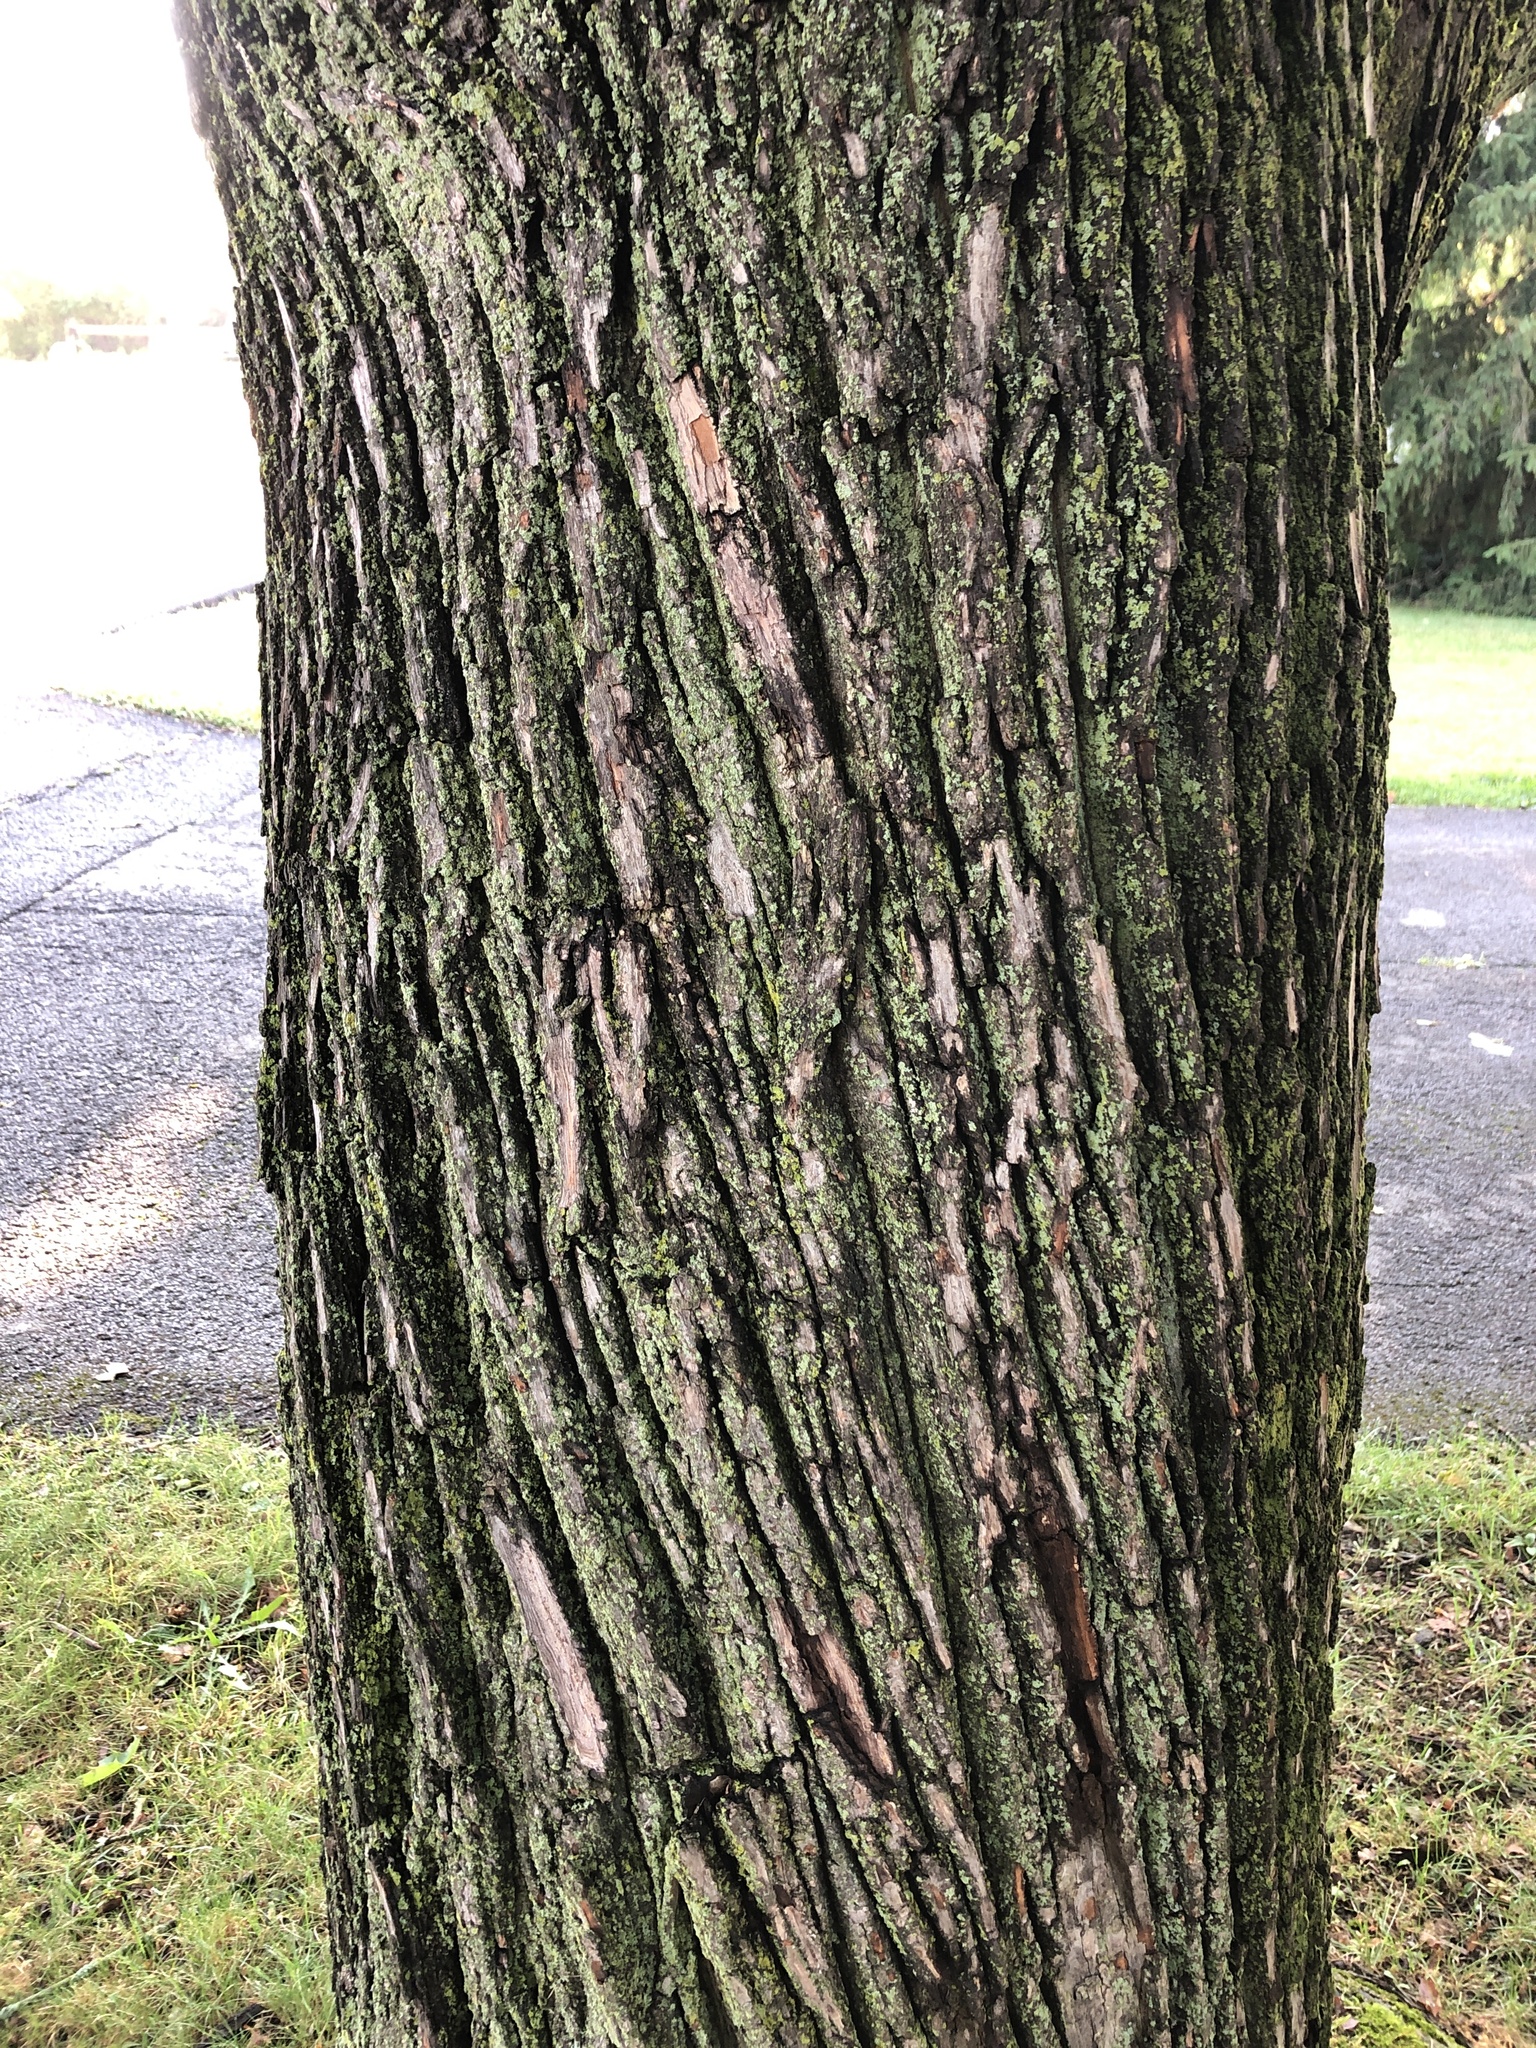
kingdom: Plantae
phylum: Tracheophyta
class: Magnoliopsida
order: Sapindales
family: Sapindaceae
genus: Acer
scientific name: Acer platanoides
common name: Norway maple
